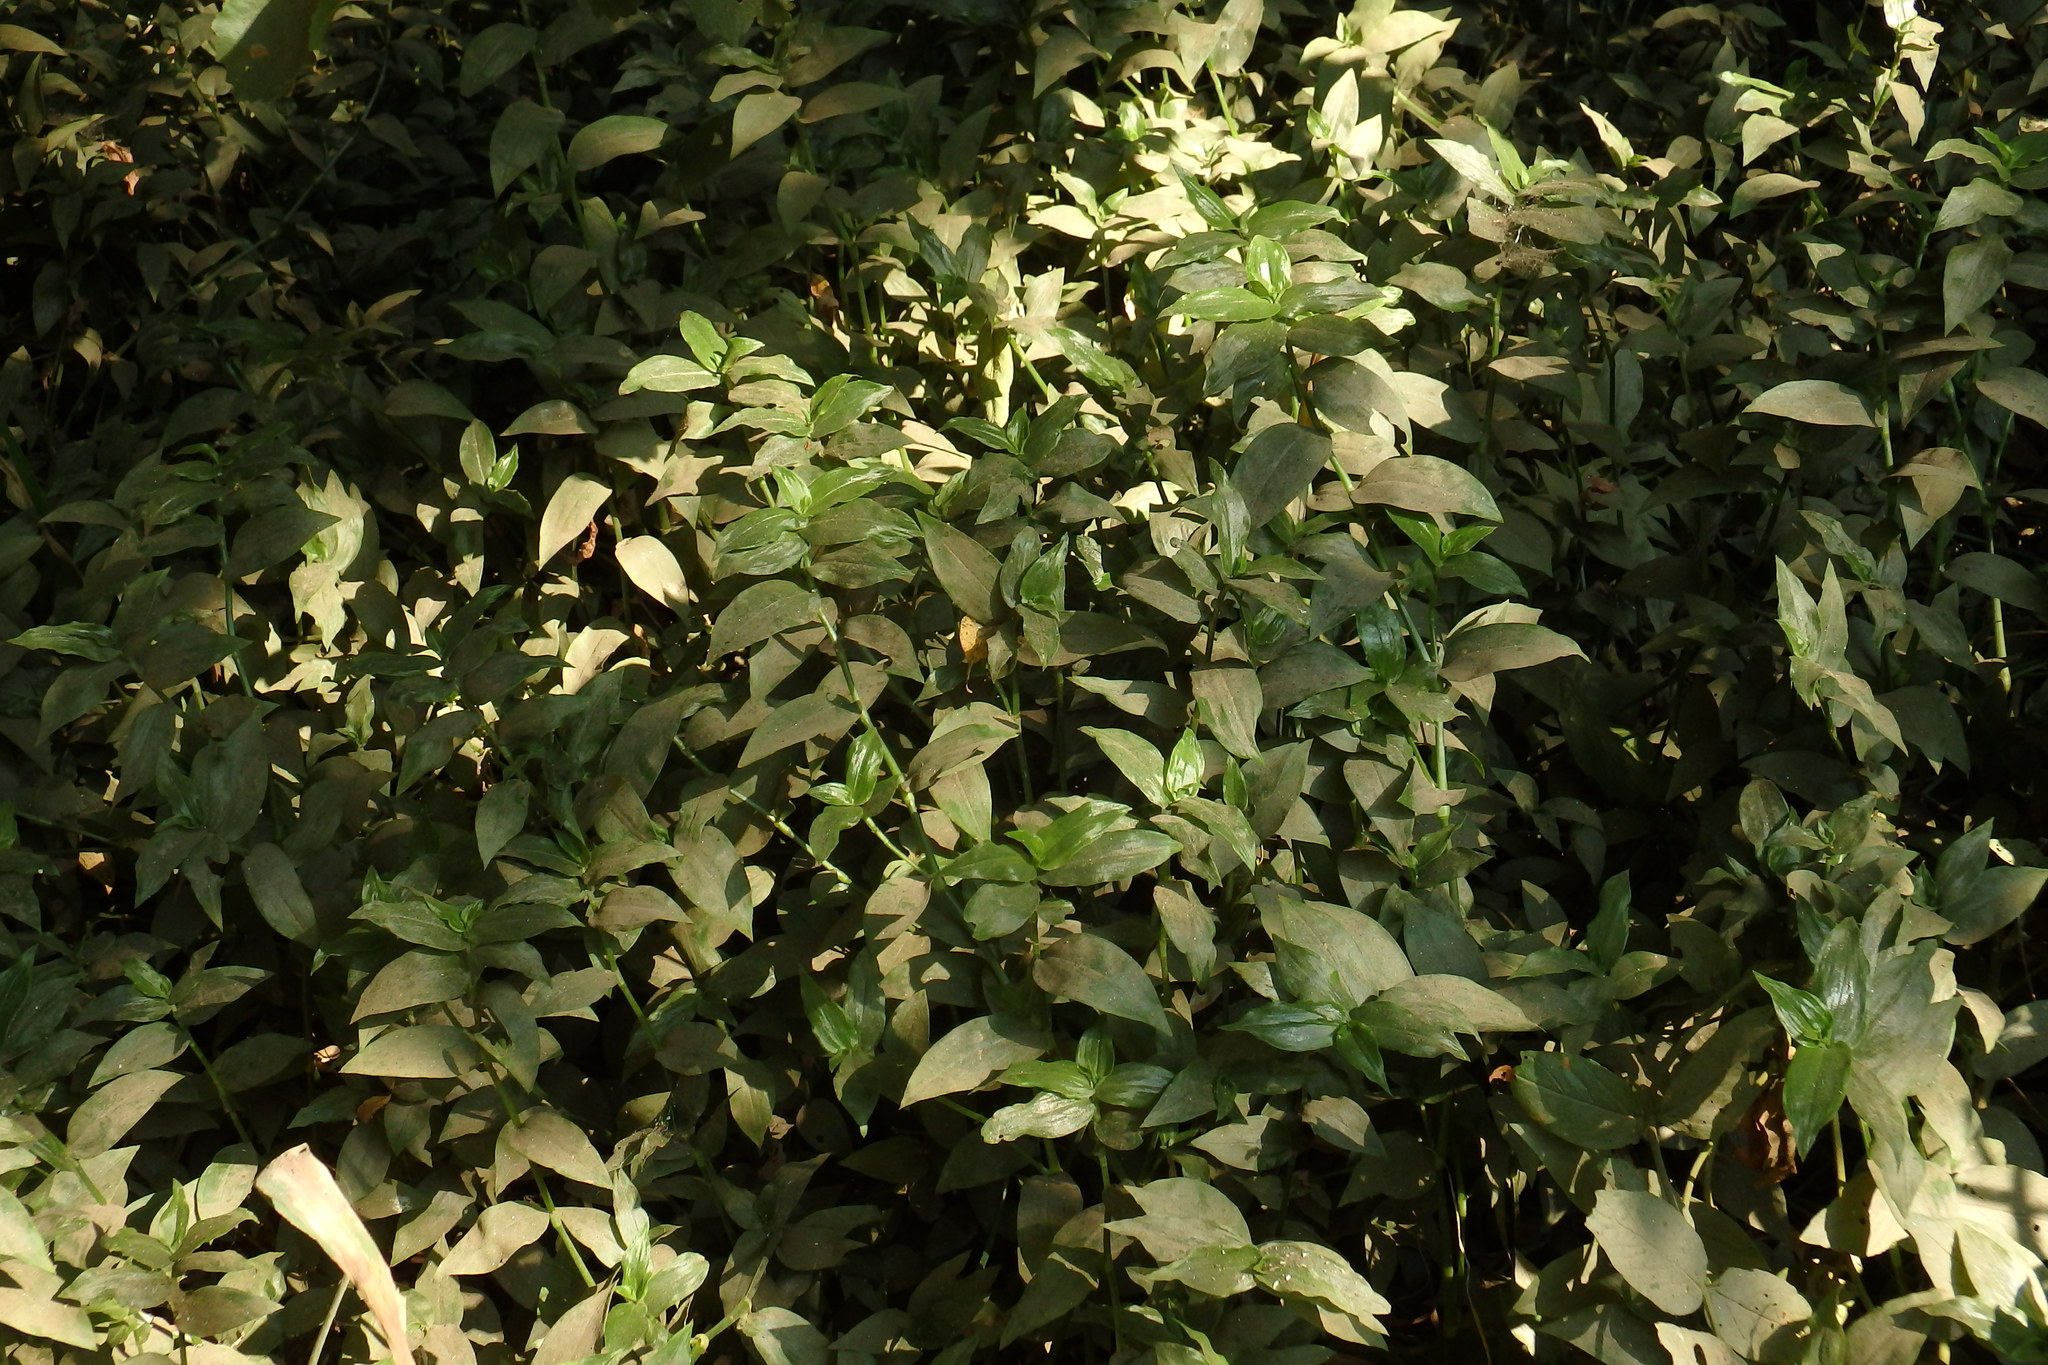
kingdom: Plantae
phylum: Tracheophyta
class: Liliopsida
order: Commelinales
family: Commelinaceae
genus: Tradescantia
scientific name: Tradescantia fluminensis
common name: Wandering-jew
